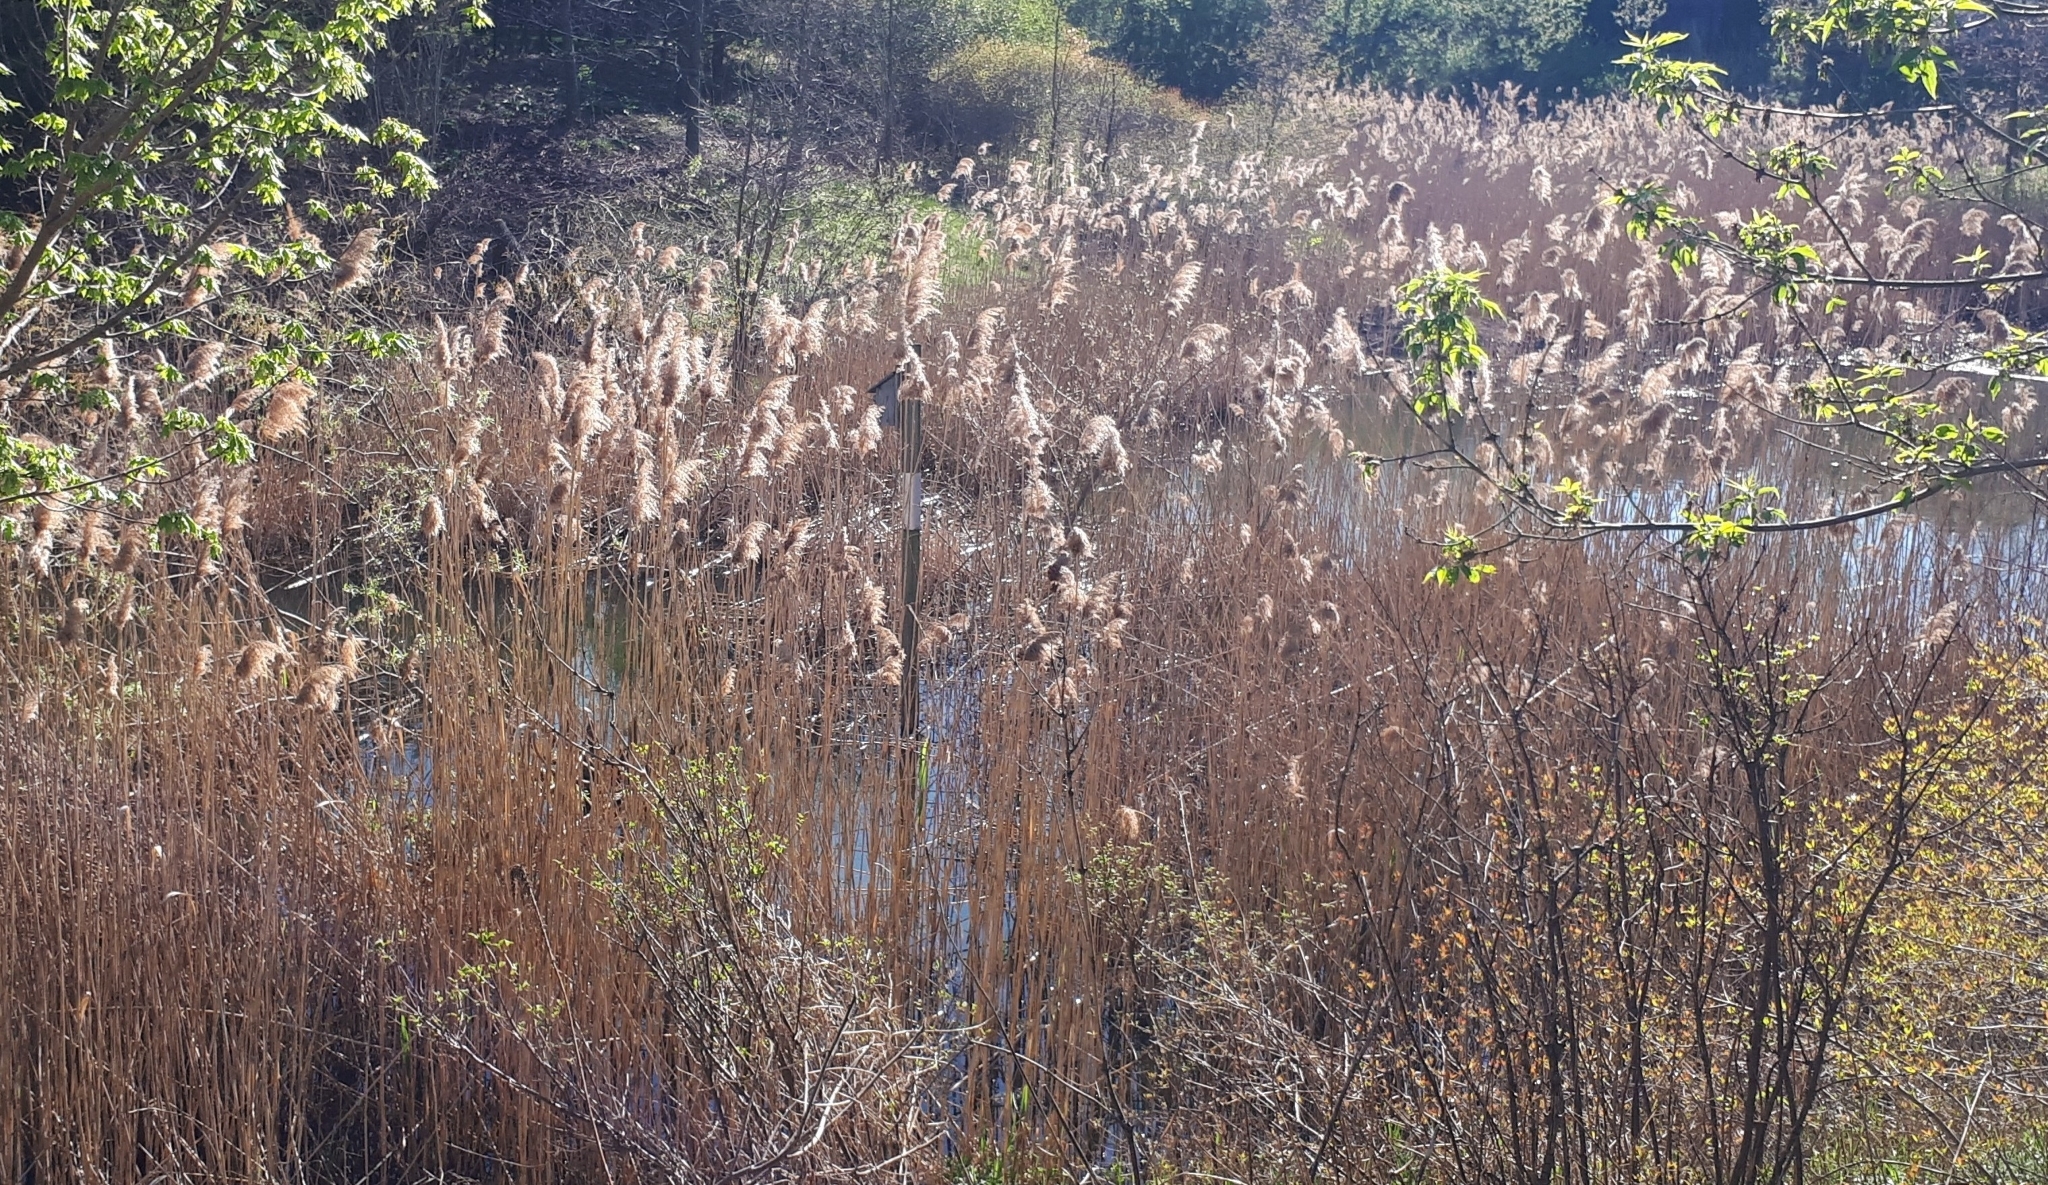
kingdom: Plantae
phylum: Tracheophyta
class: Liliopsida
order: Poales
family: Poaceae
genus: Phragmites
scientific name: Phragmites australis
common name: Common reed
